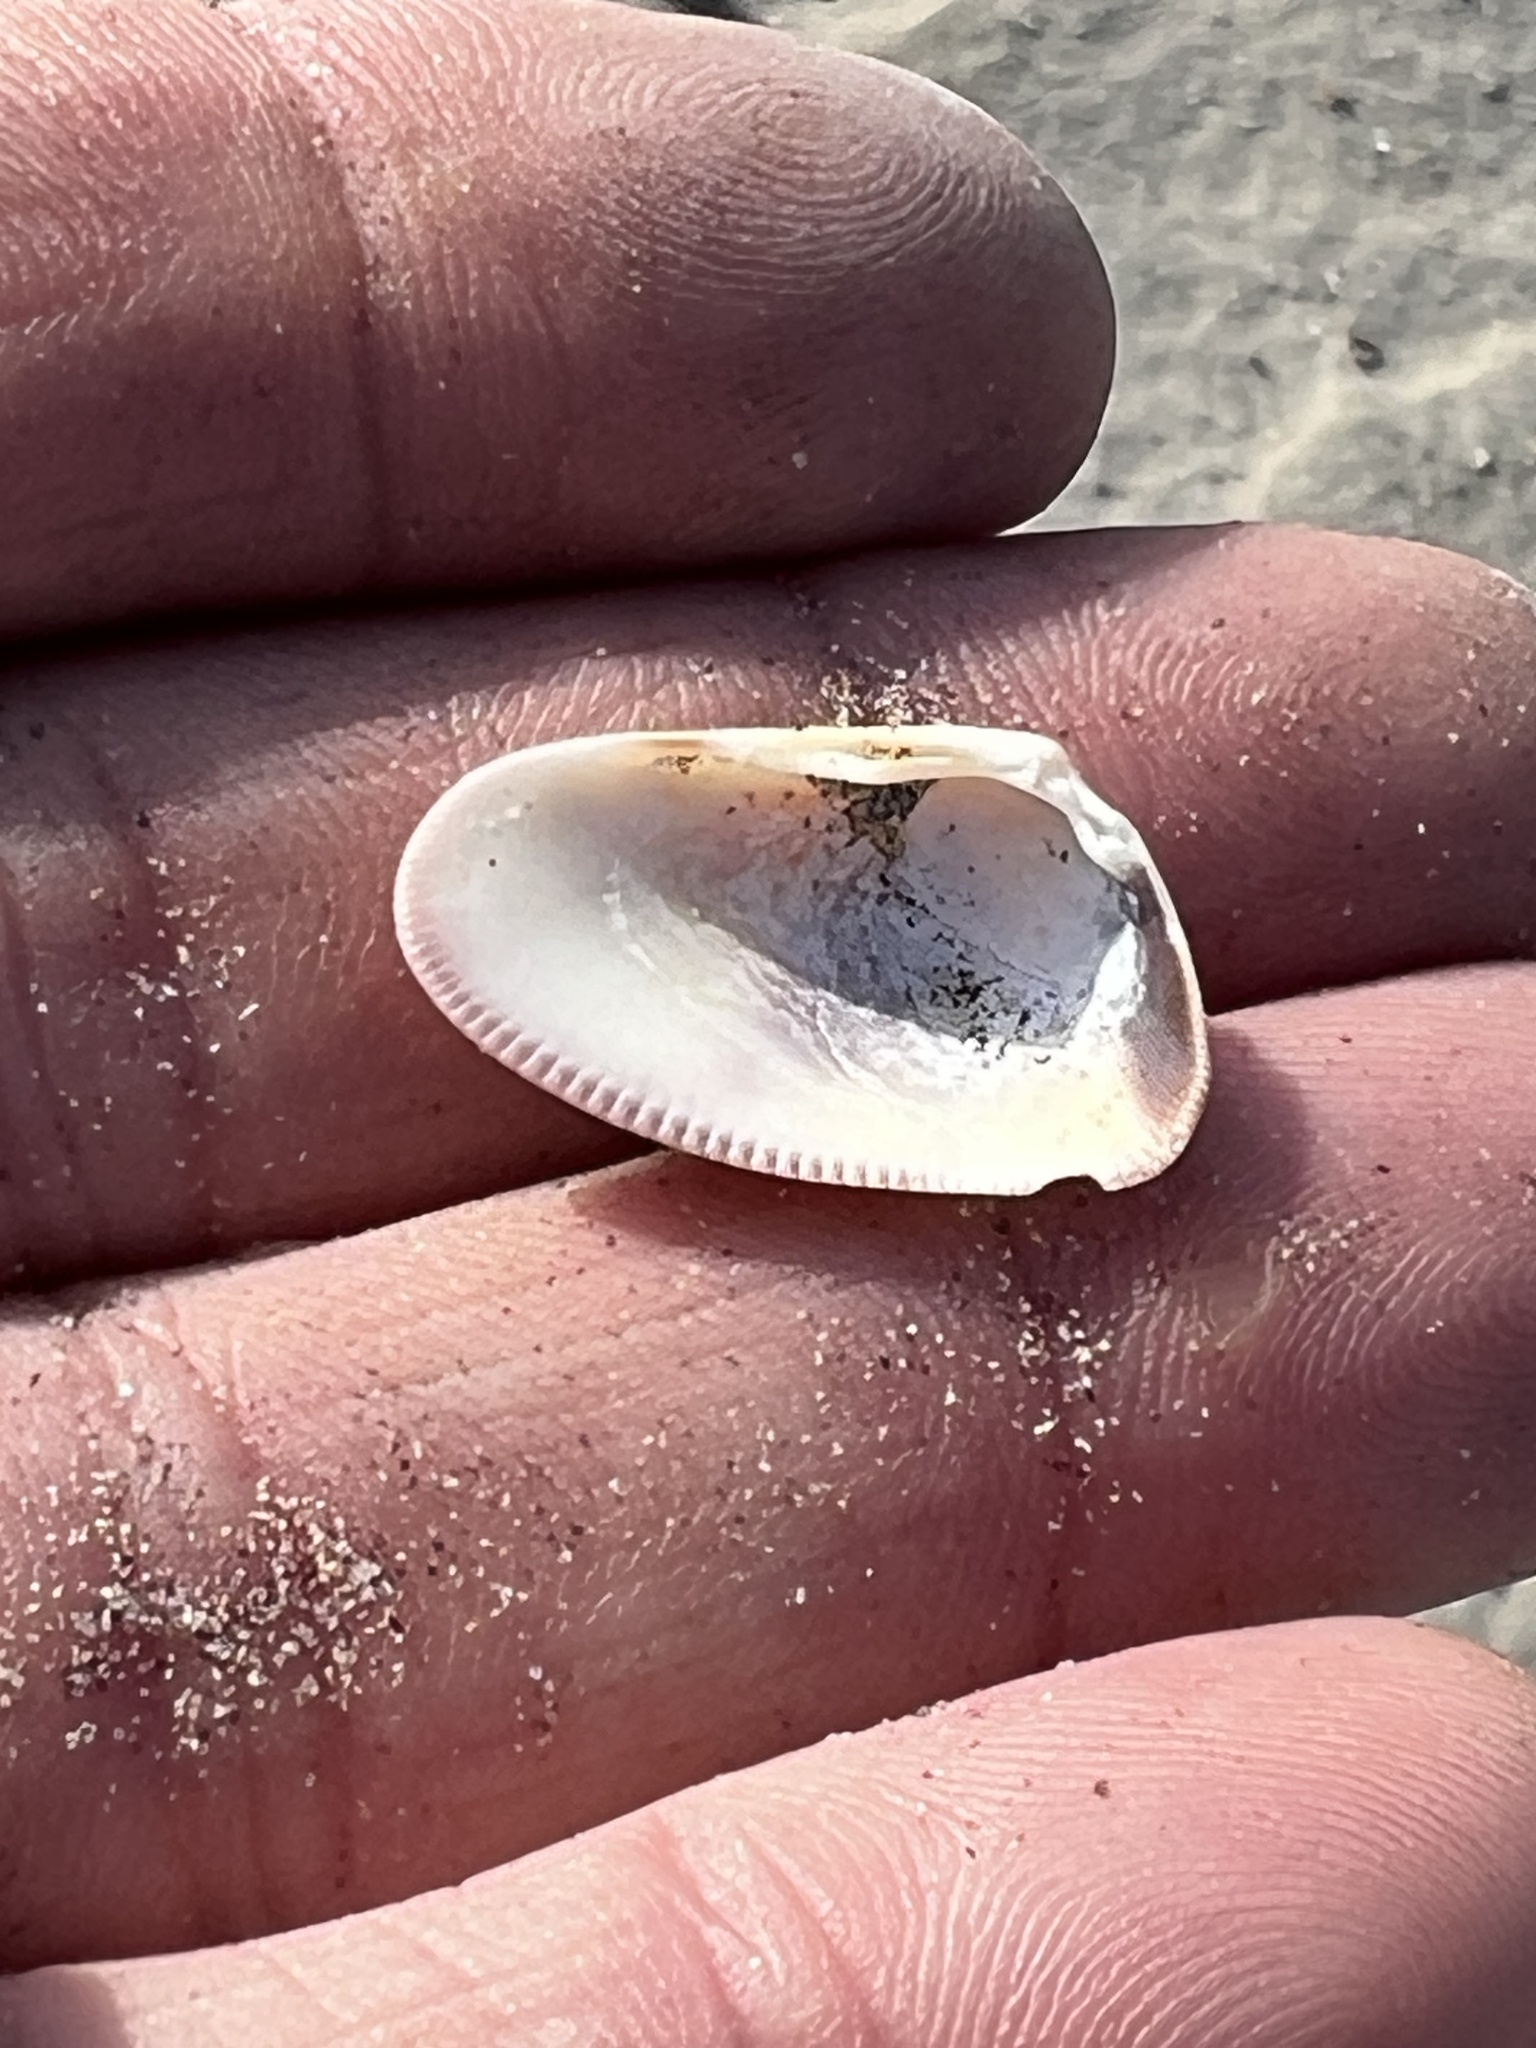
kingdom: Animalia
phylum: Mollusca
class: Bivalvia
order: Cardiida
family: Donacidae
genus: Donax
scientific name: Donax gouldii
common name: Gould beanclam
